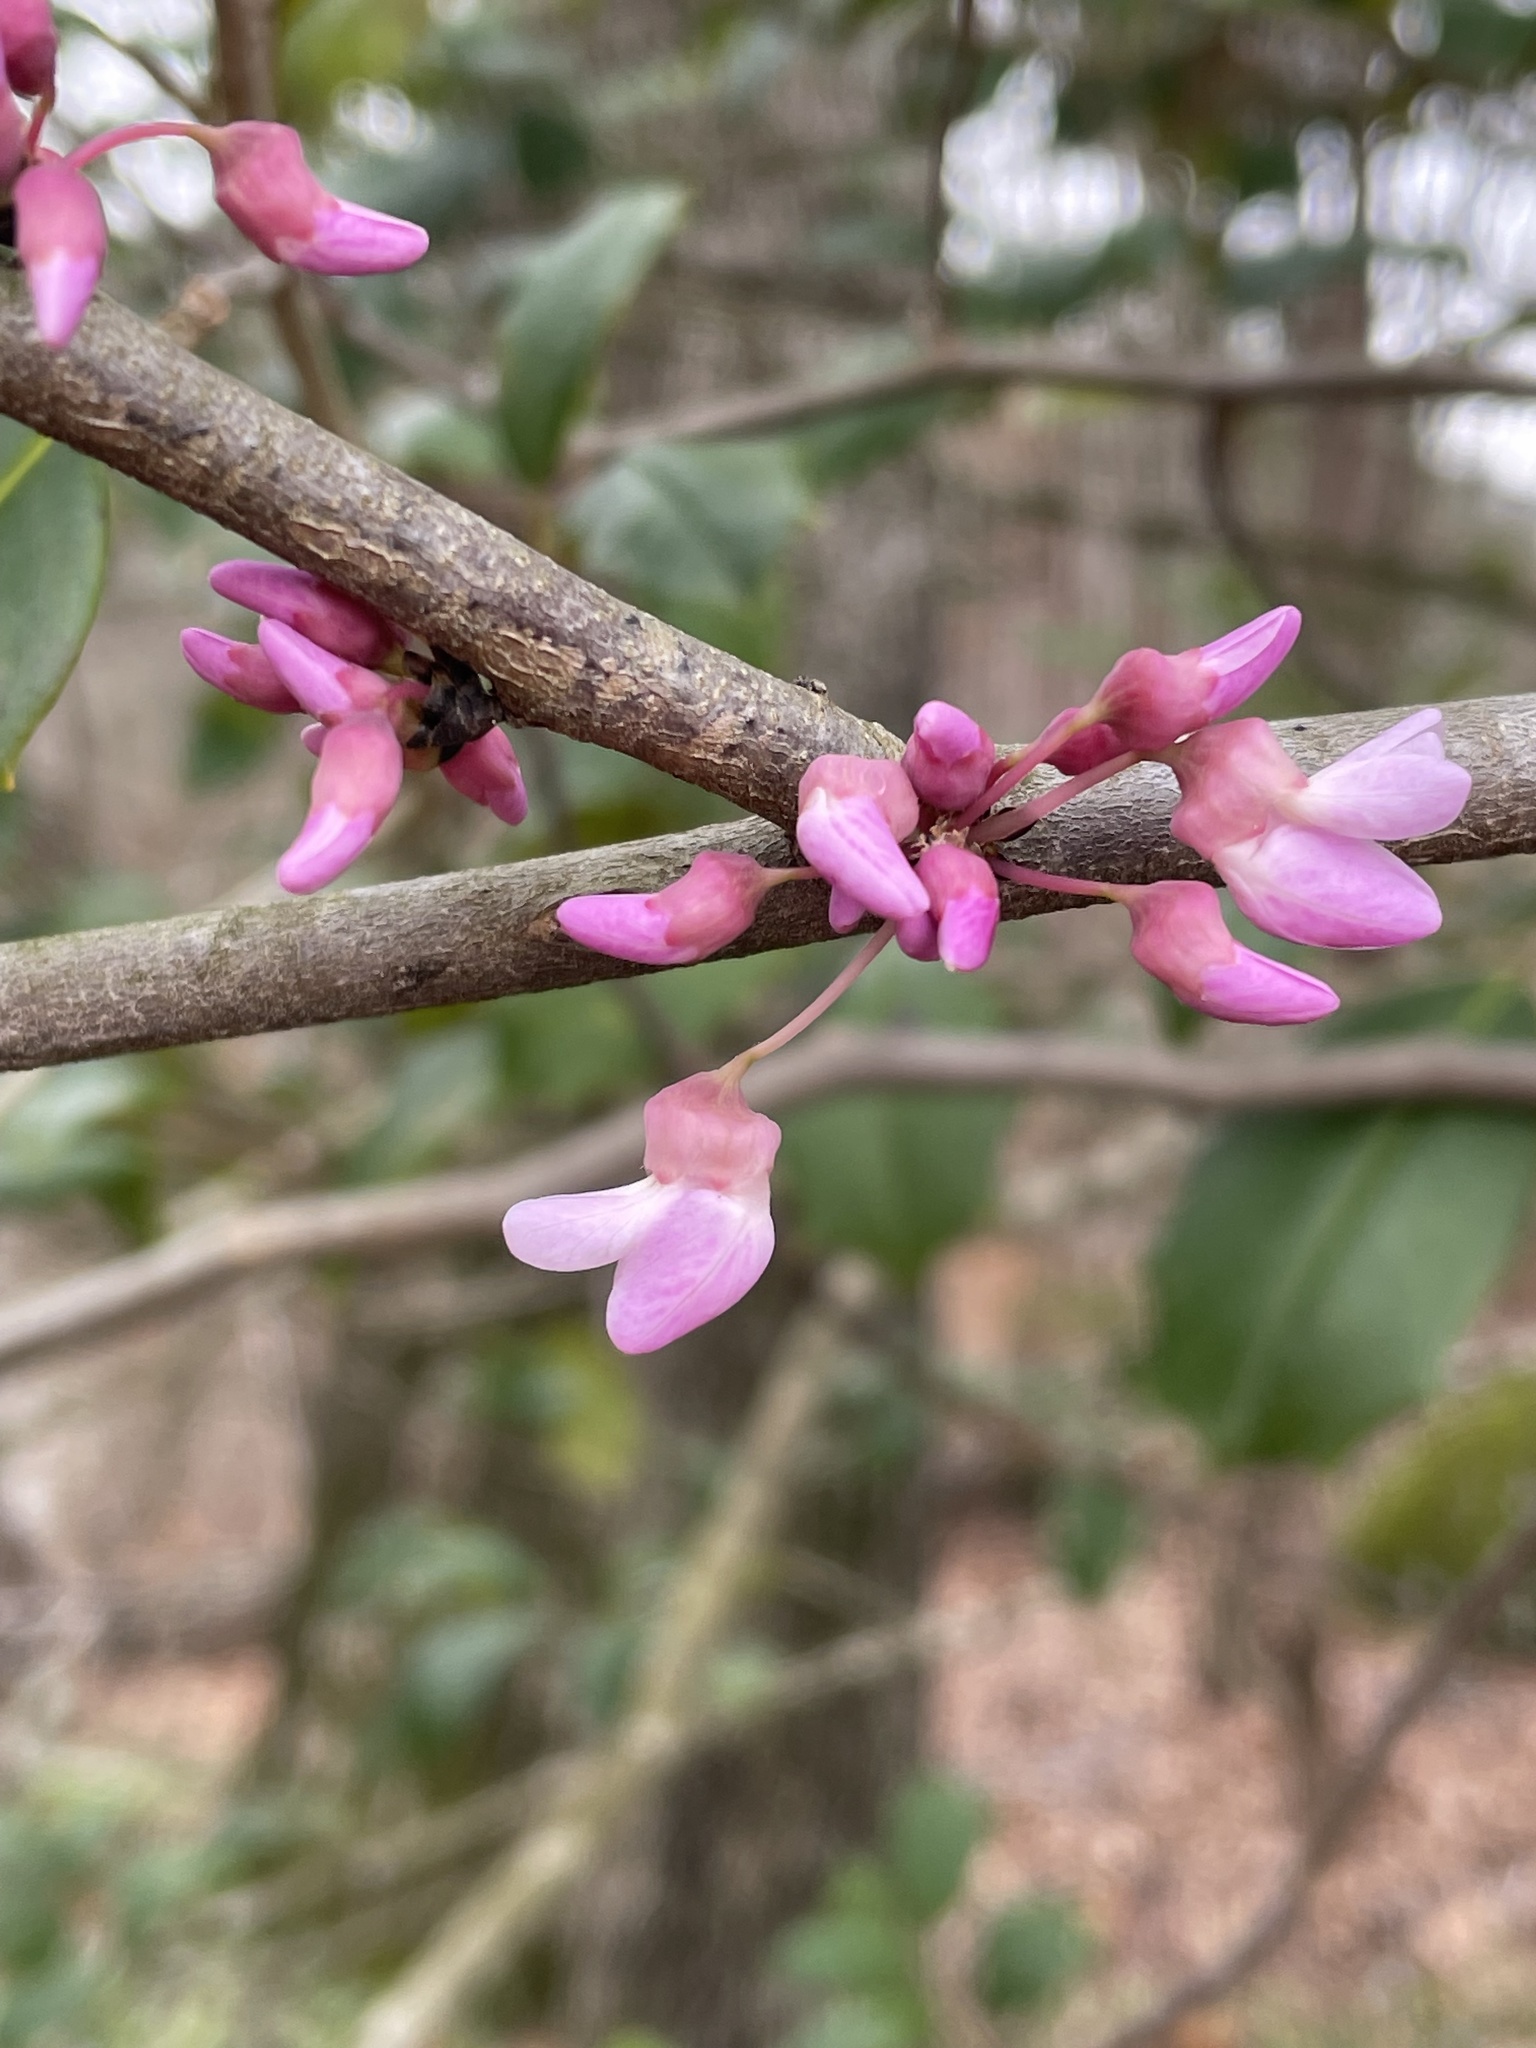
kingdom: Plantae
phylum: Tracheophyta
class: Magnoliopsida
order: Fabales
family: Fabaceae
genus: Cercis
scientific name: Cercis canadensis
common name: Eastern redbud
